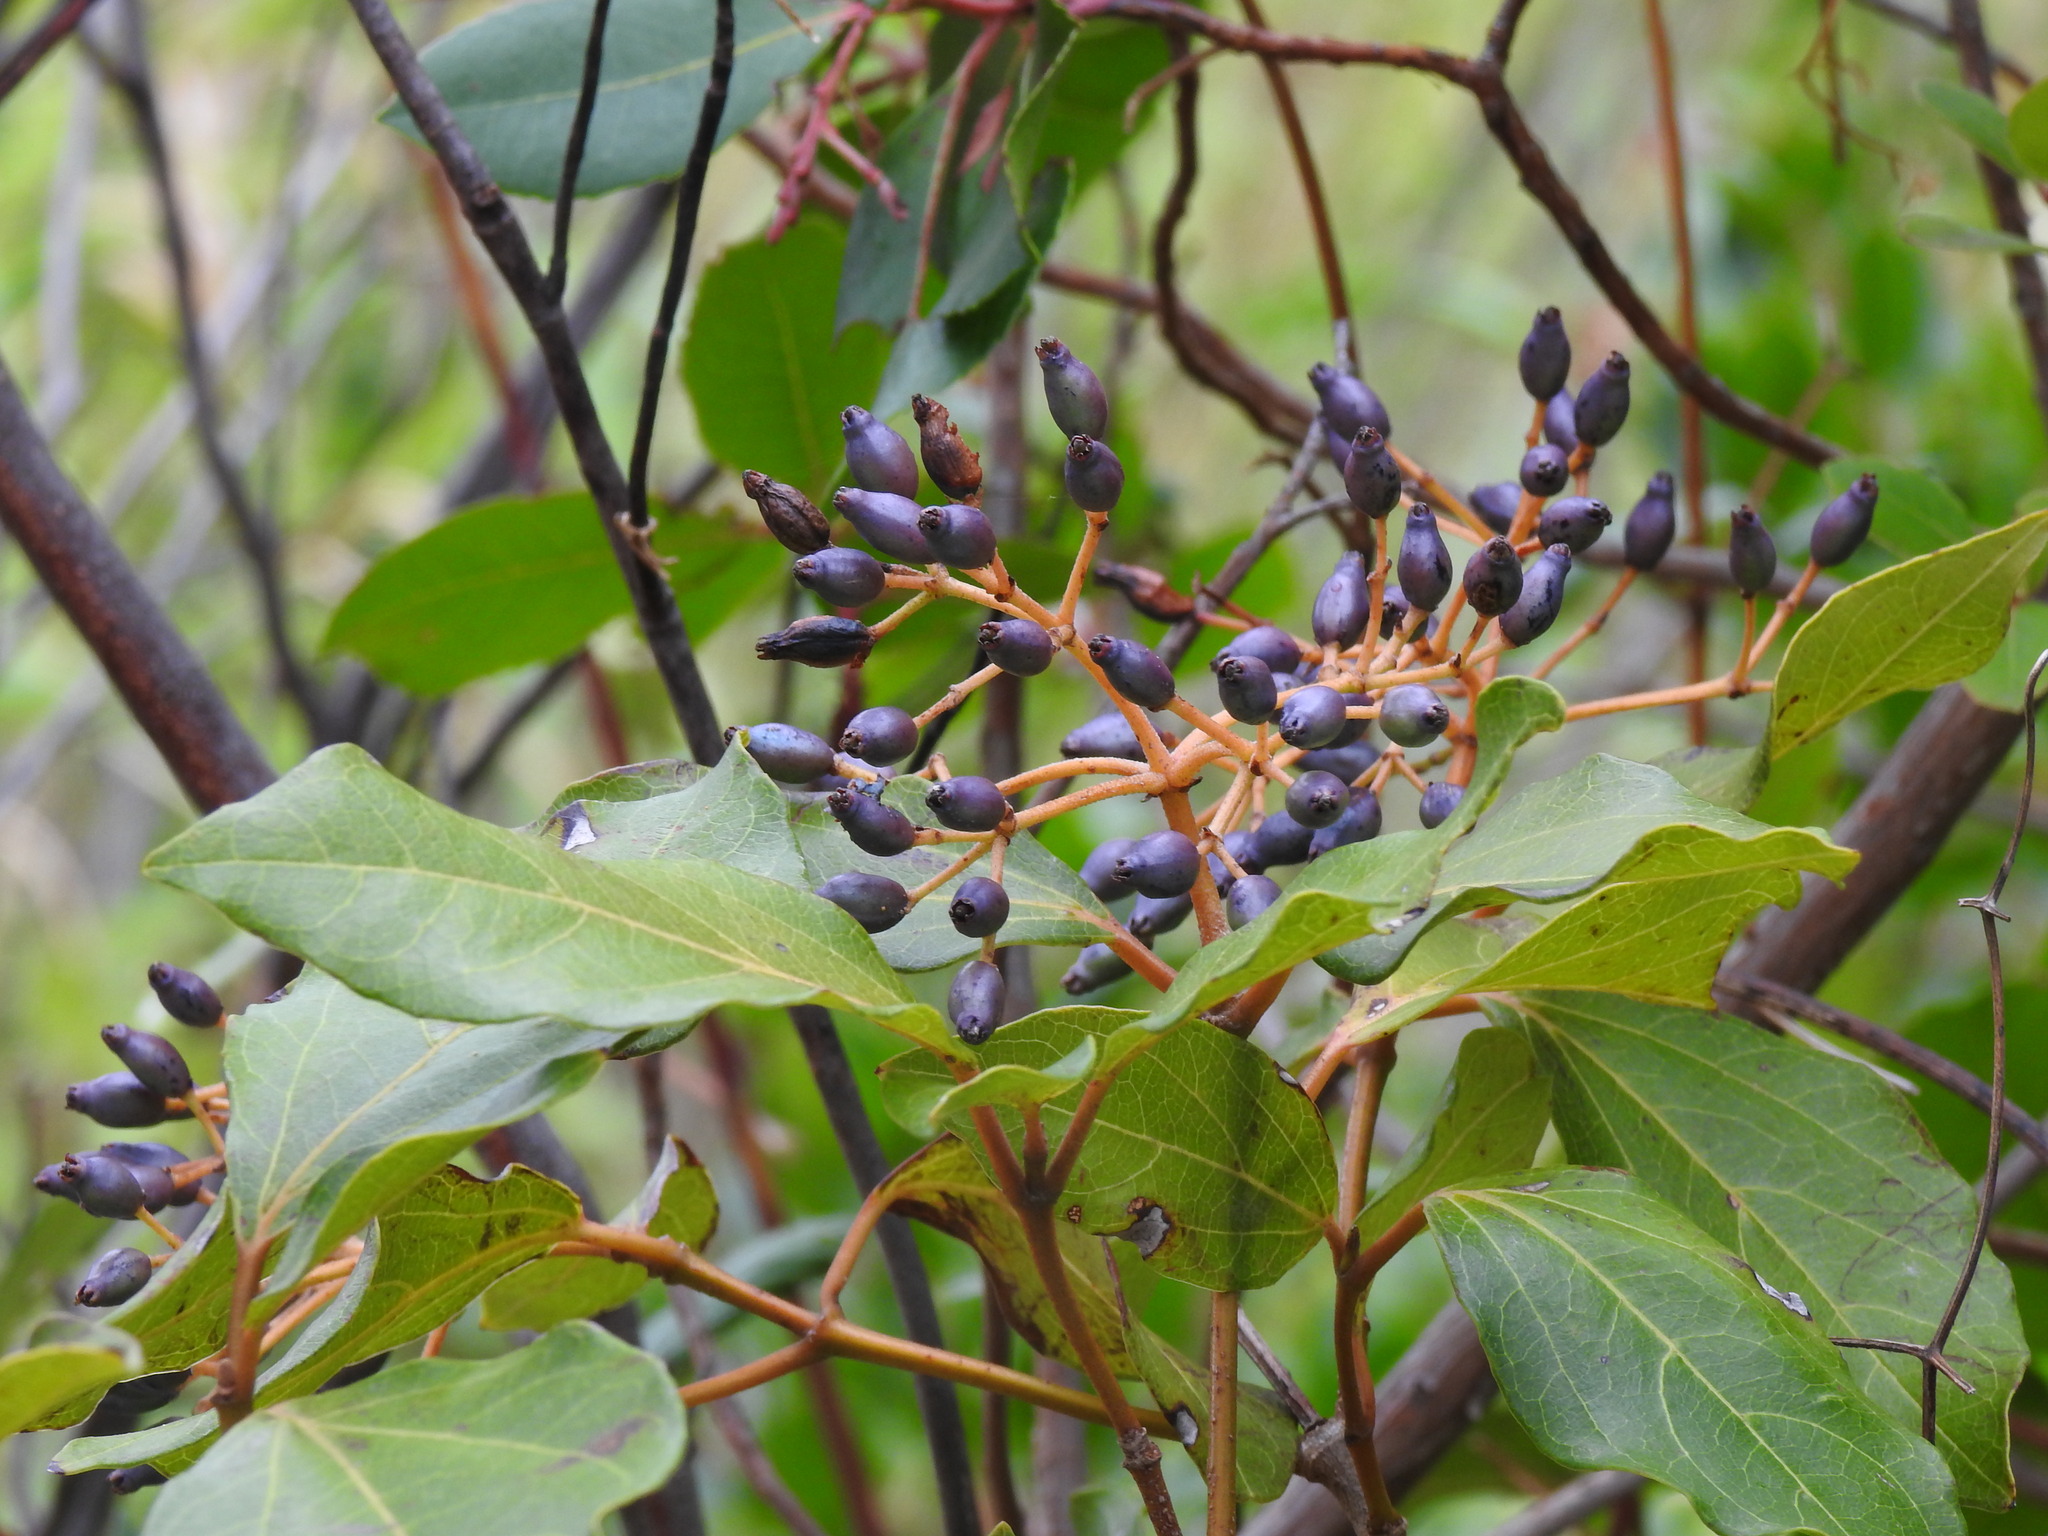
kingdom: Plantae
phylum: Tracheophyta
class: Magnoliopsida
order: Dipsacales
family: Viburnaceae
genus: Viburnum
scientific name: Viburnum tinus
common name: Laurustinus
